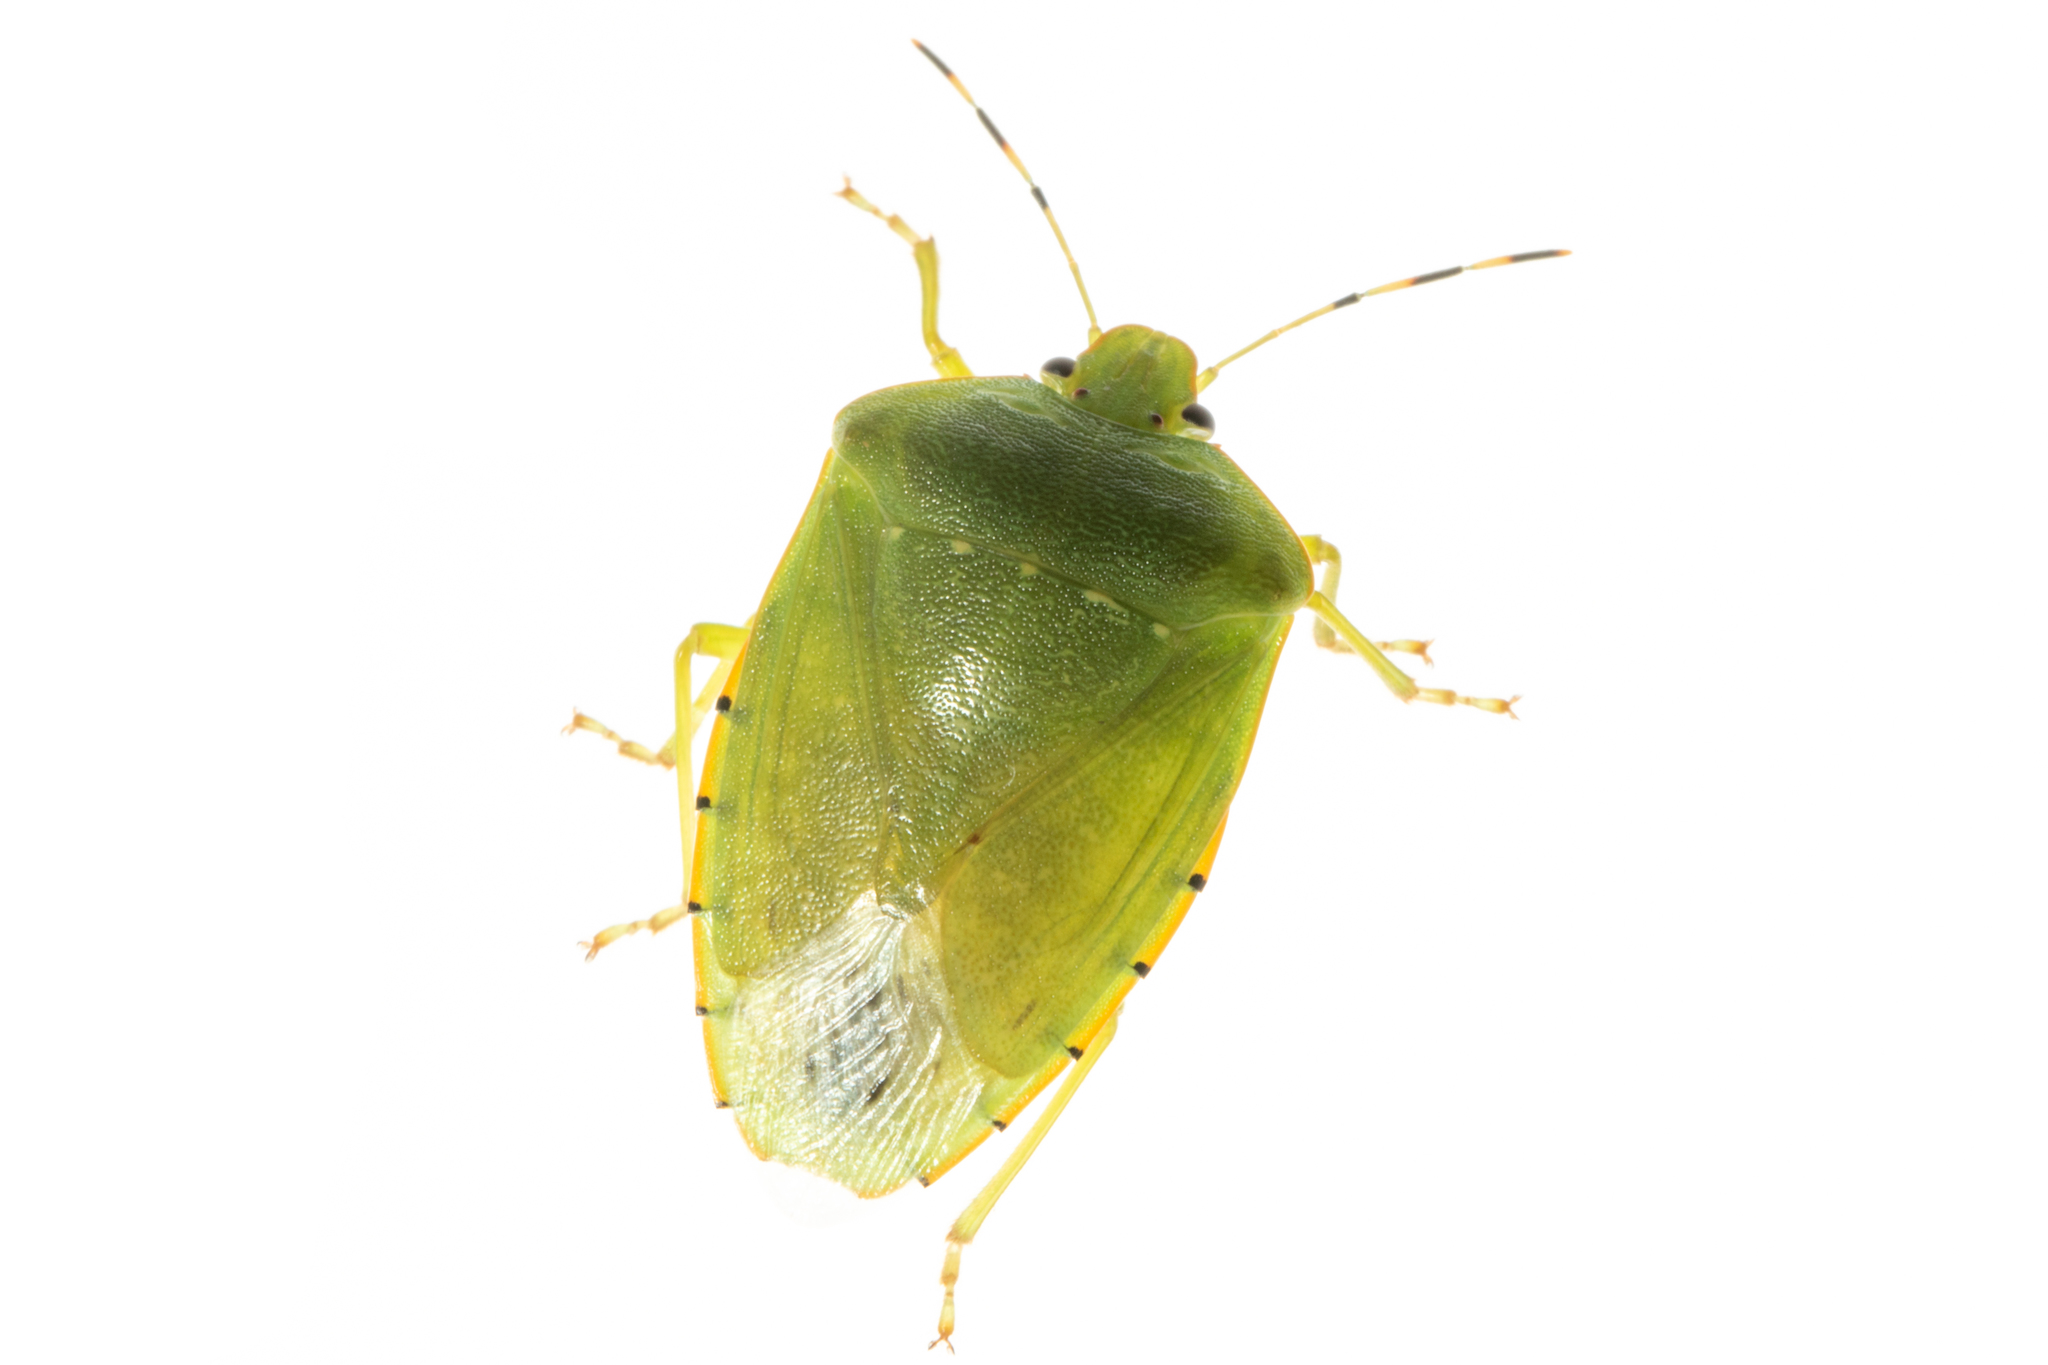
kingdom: Animalia
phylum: Arthropoda
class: Insecta
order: Hemiptera
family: Pentatomidae
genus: Chinavia
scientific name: Chinavia hilaris
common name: Green stink bug
